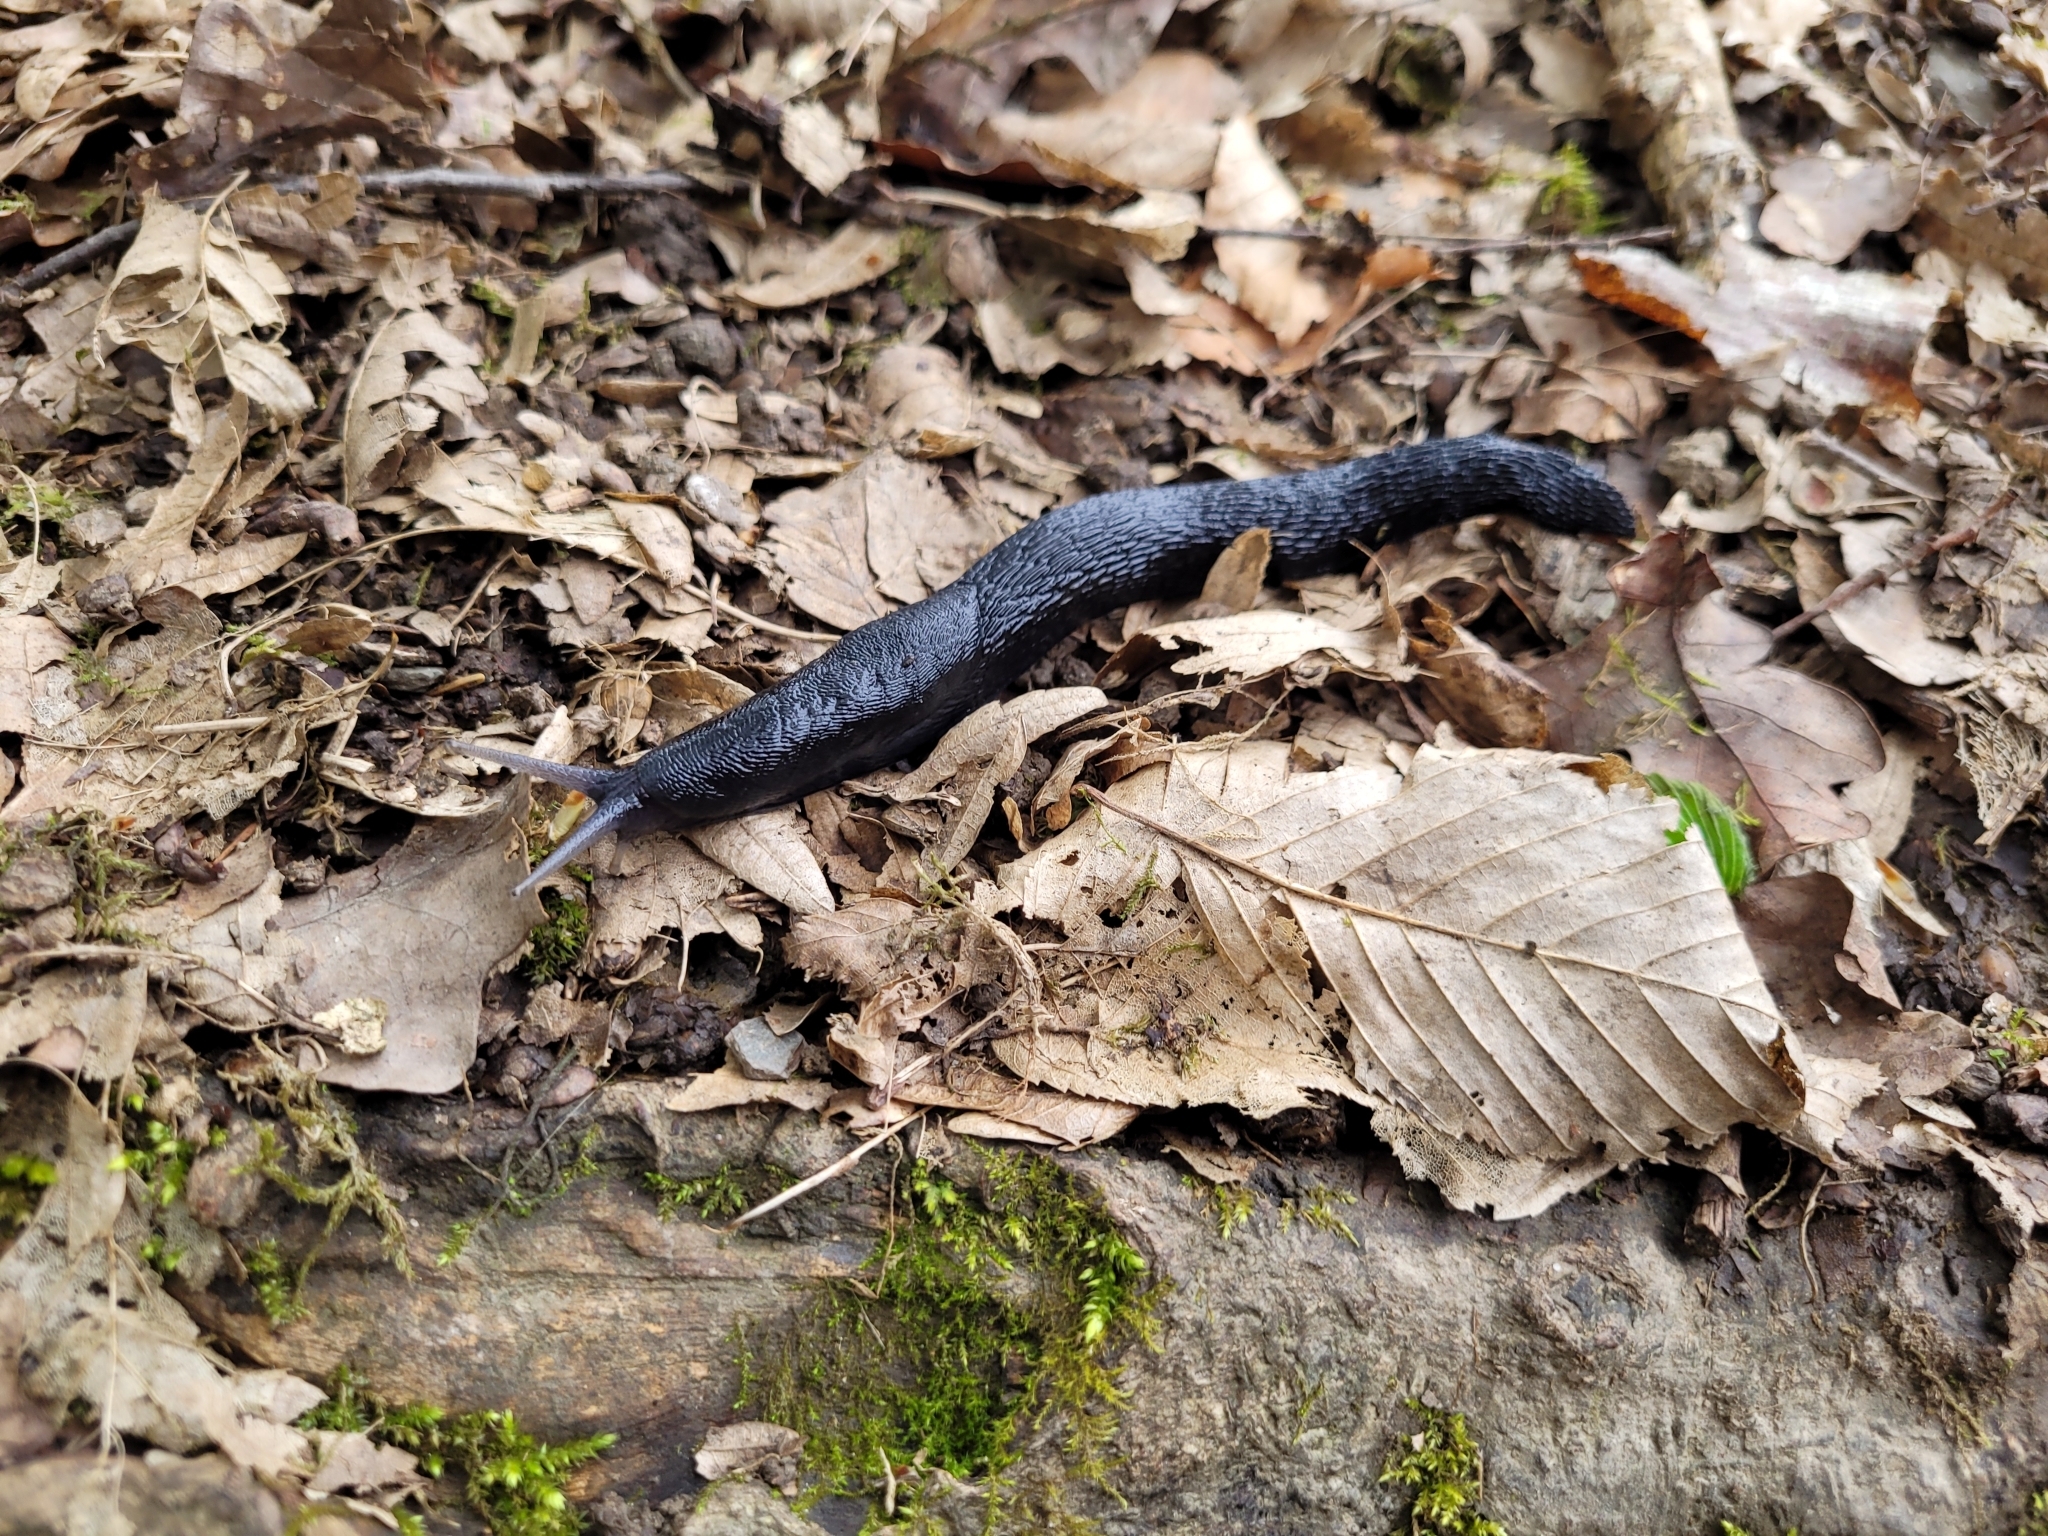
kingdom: Animalia
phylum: Mollusca
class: Gastropoda
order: Stylommatophora
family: Limacidae
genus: Limax
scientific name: Limax cinereoniger
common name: Ash-black slug
